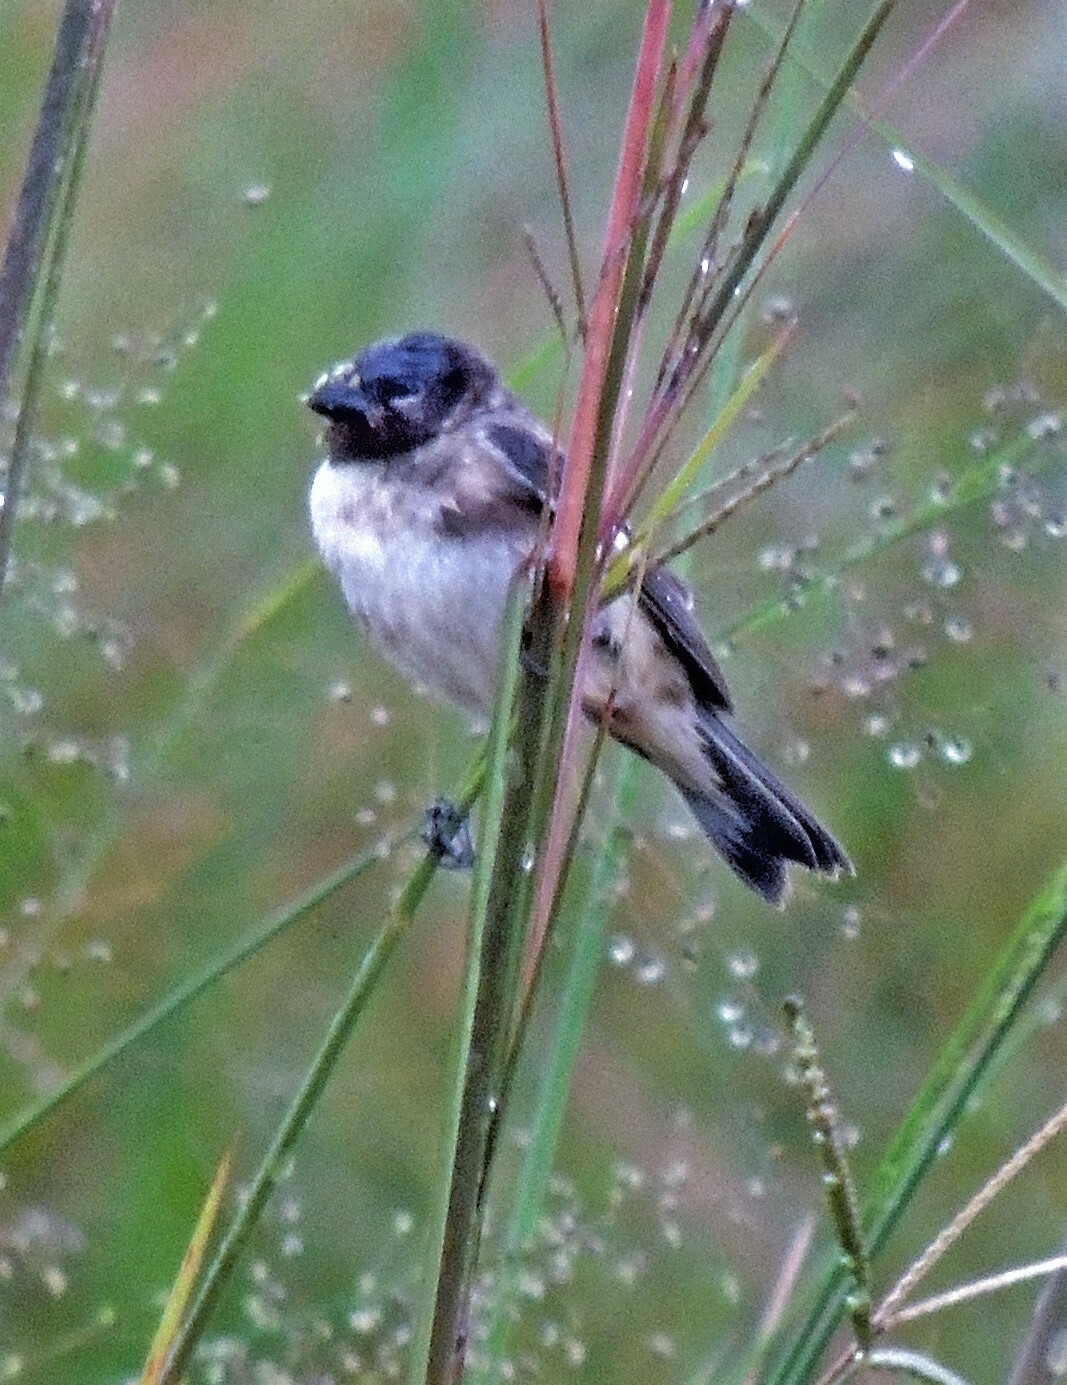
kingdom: Animalia
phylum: Chordata
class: Aves
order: Passeriformes
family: Thraupidae
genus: Sporophila
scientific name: Sporophila iberaensis
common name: Ibera seedeater
